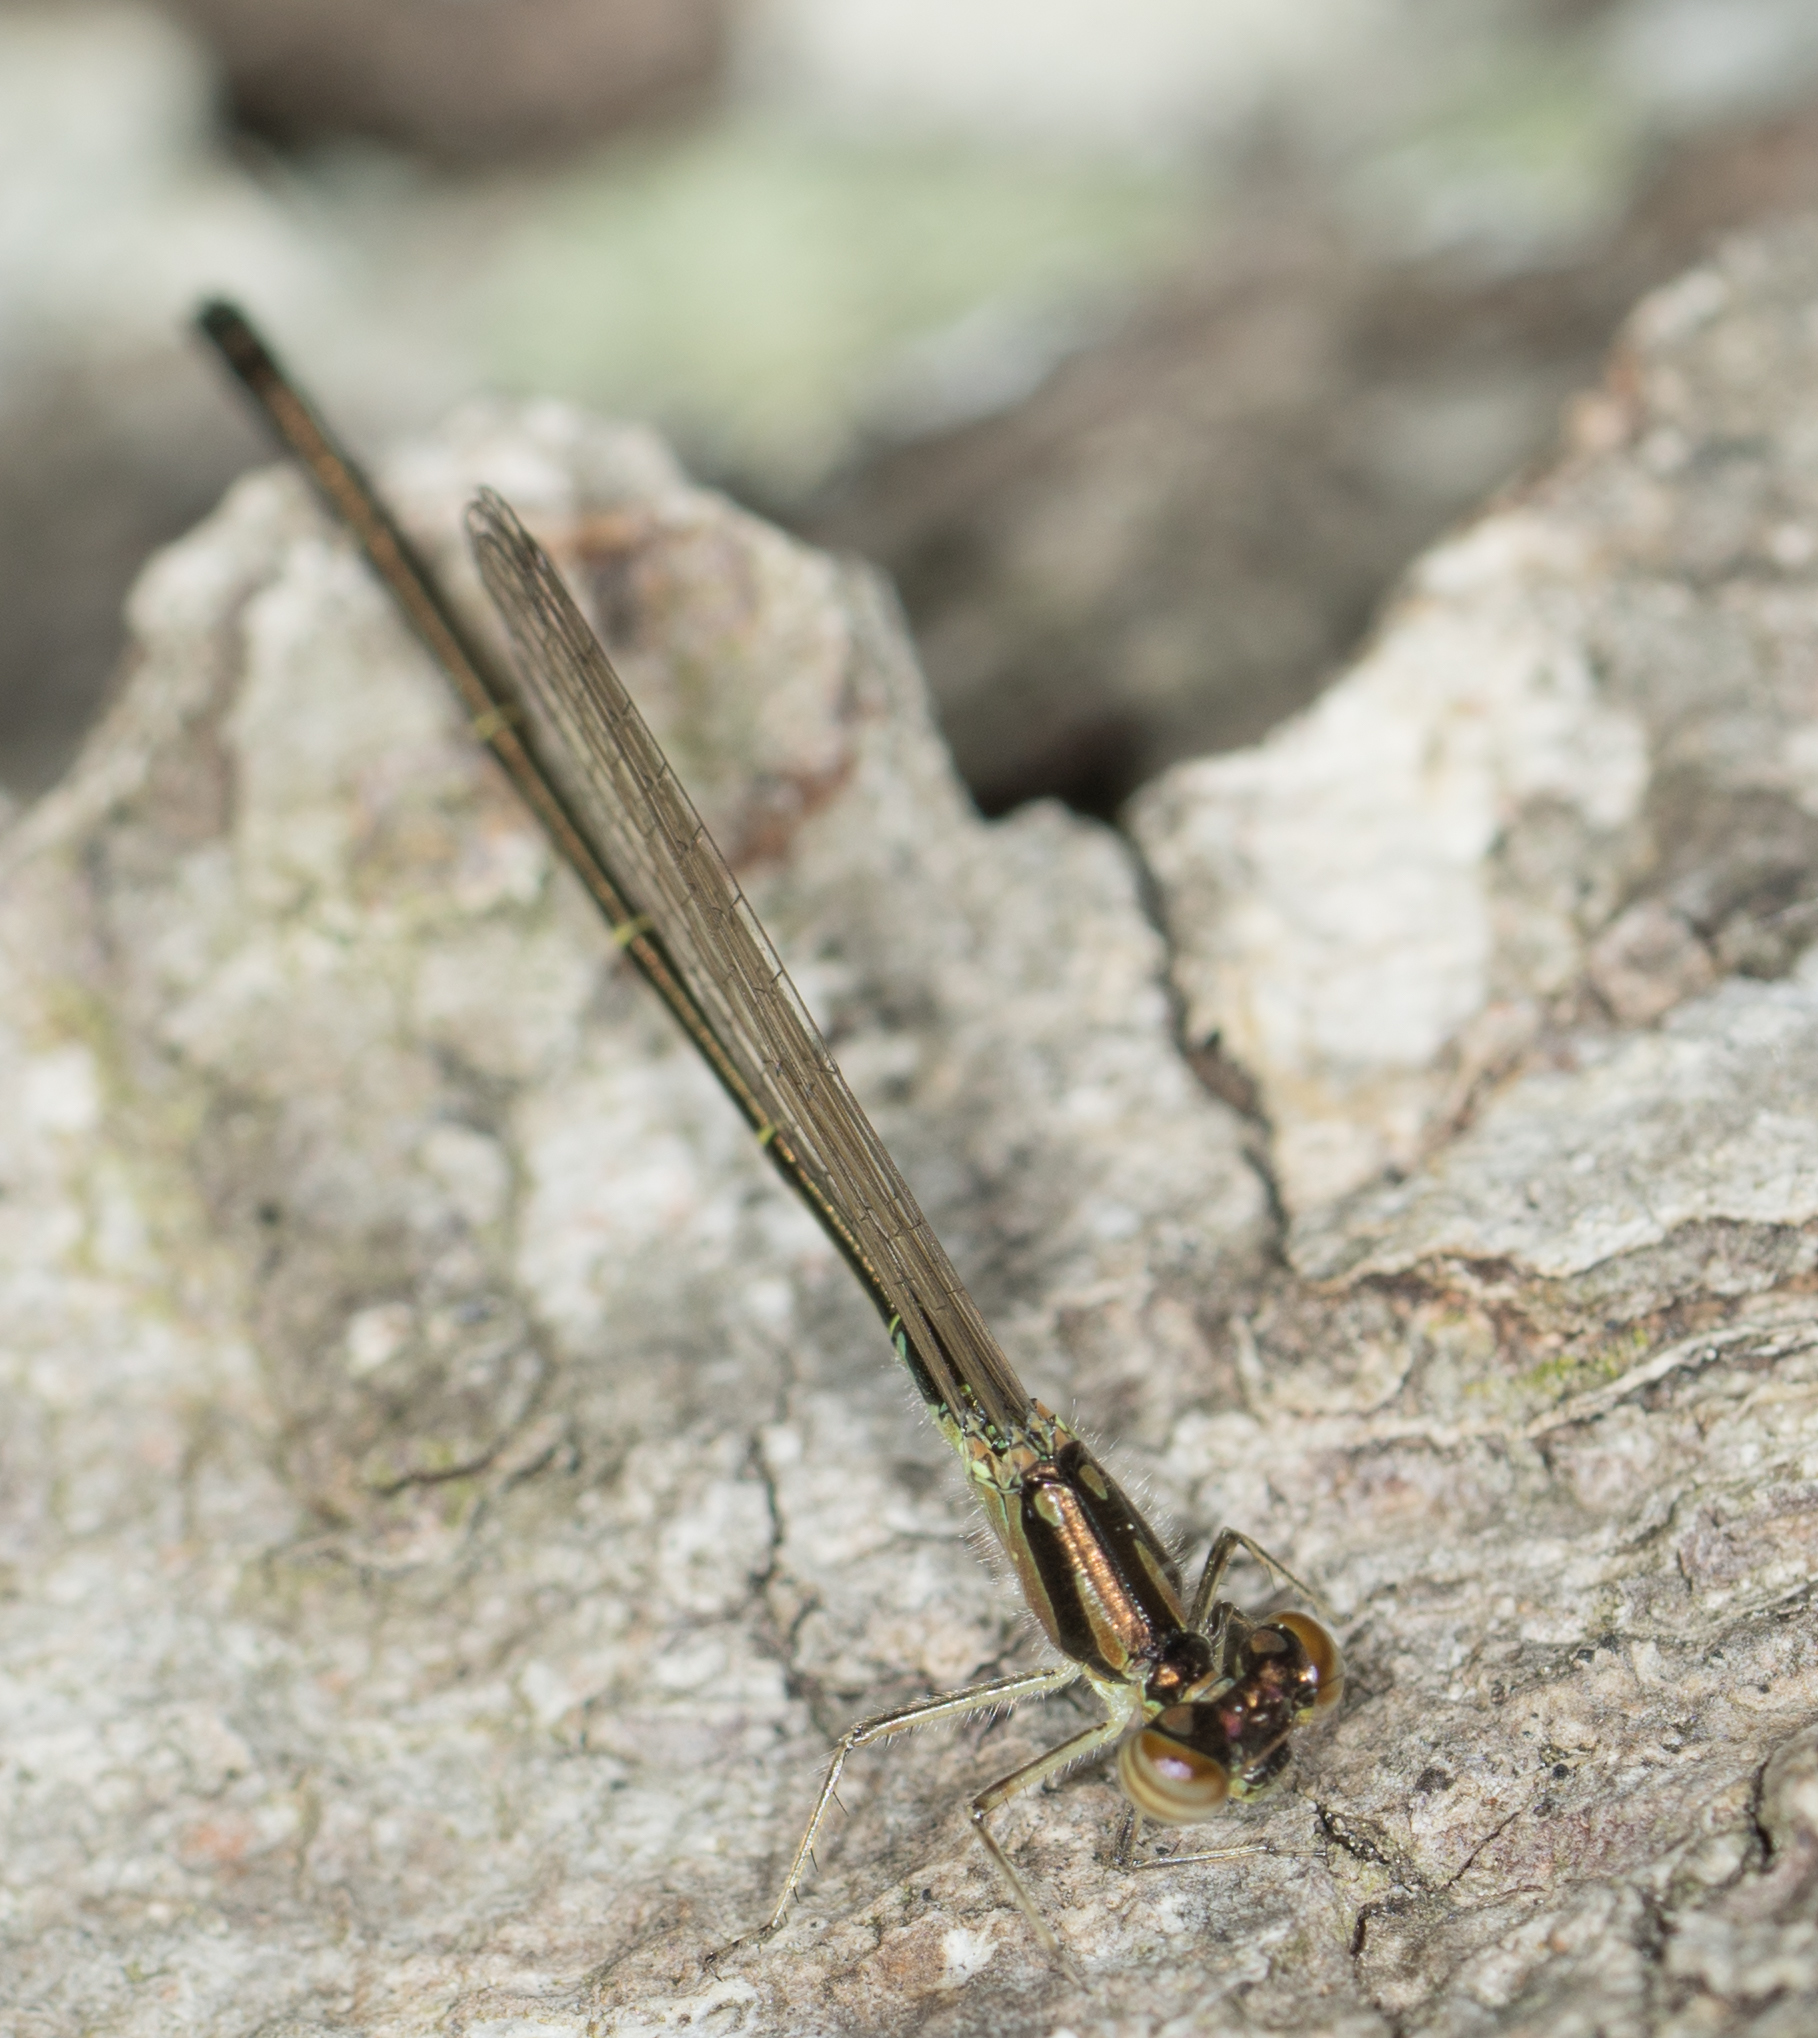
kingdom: Animalia
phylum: Arthropoda
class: Insecta
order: Odonata
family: Coenagrionidae
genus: Ischnura
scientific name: Ischnura posita
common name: Fragile forktail
